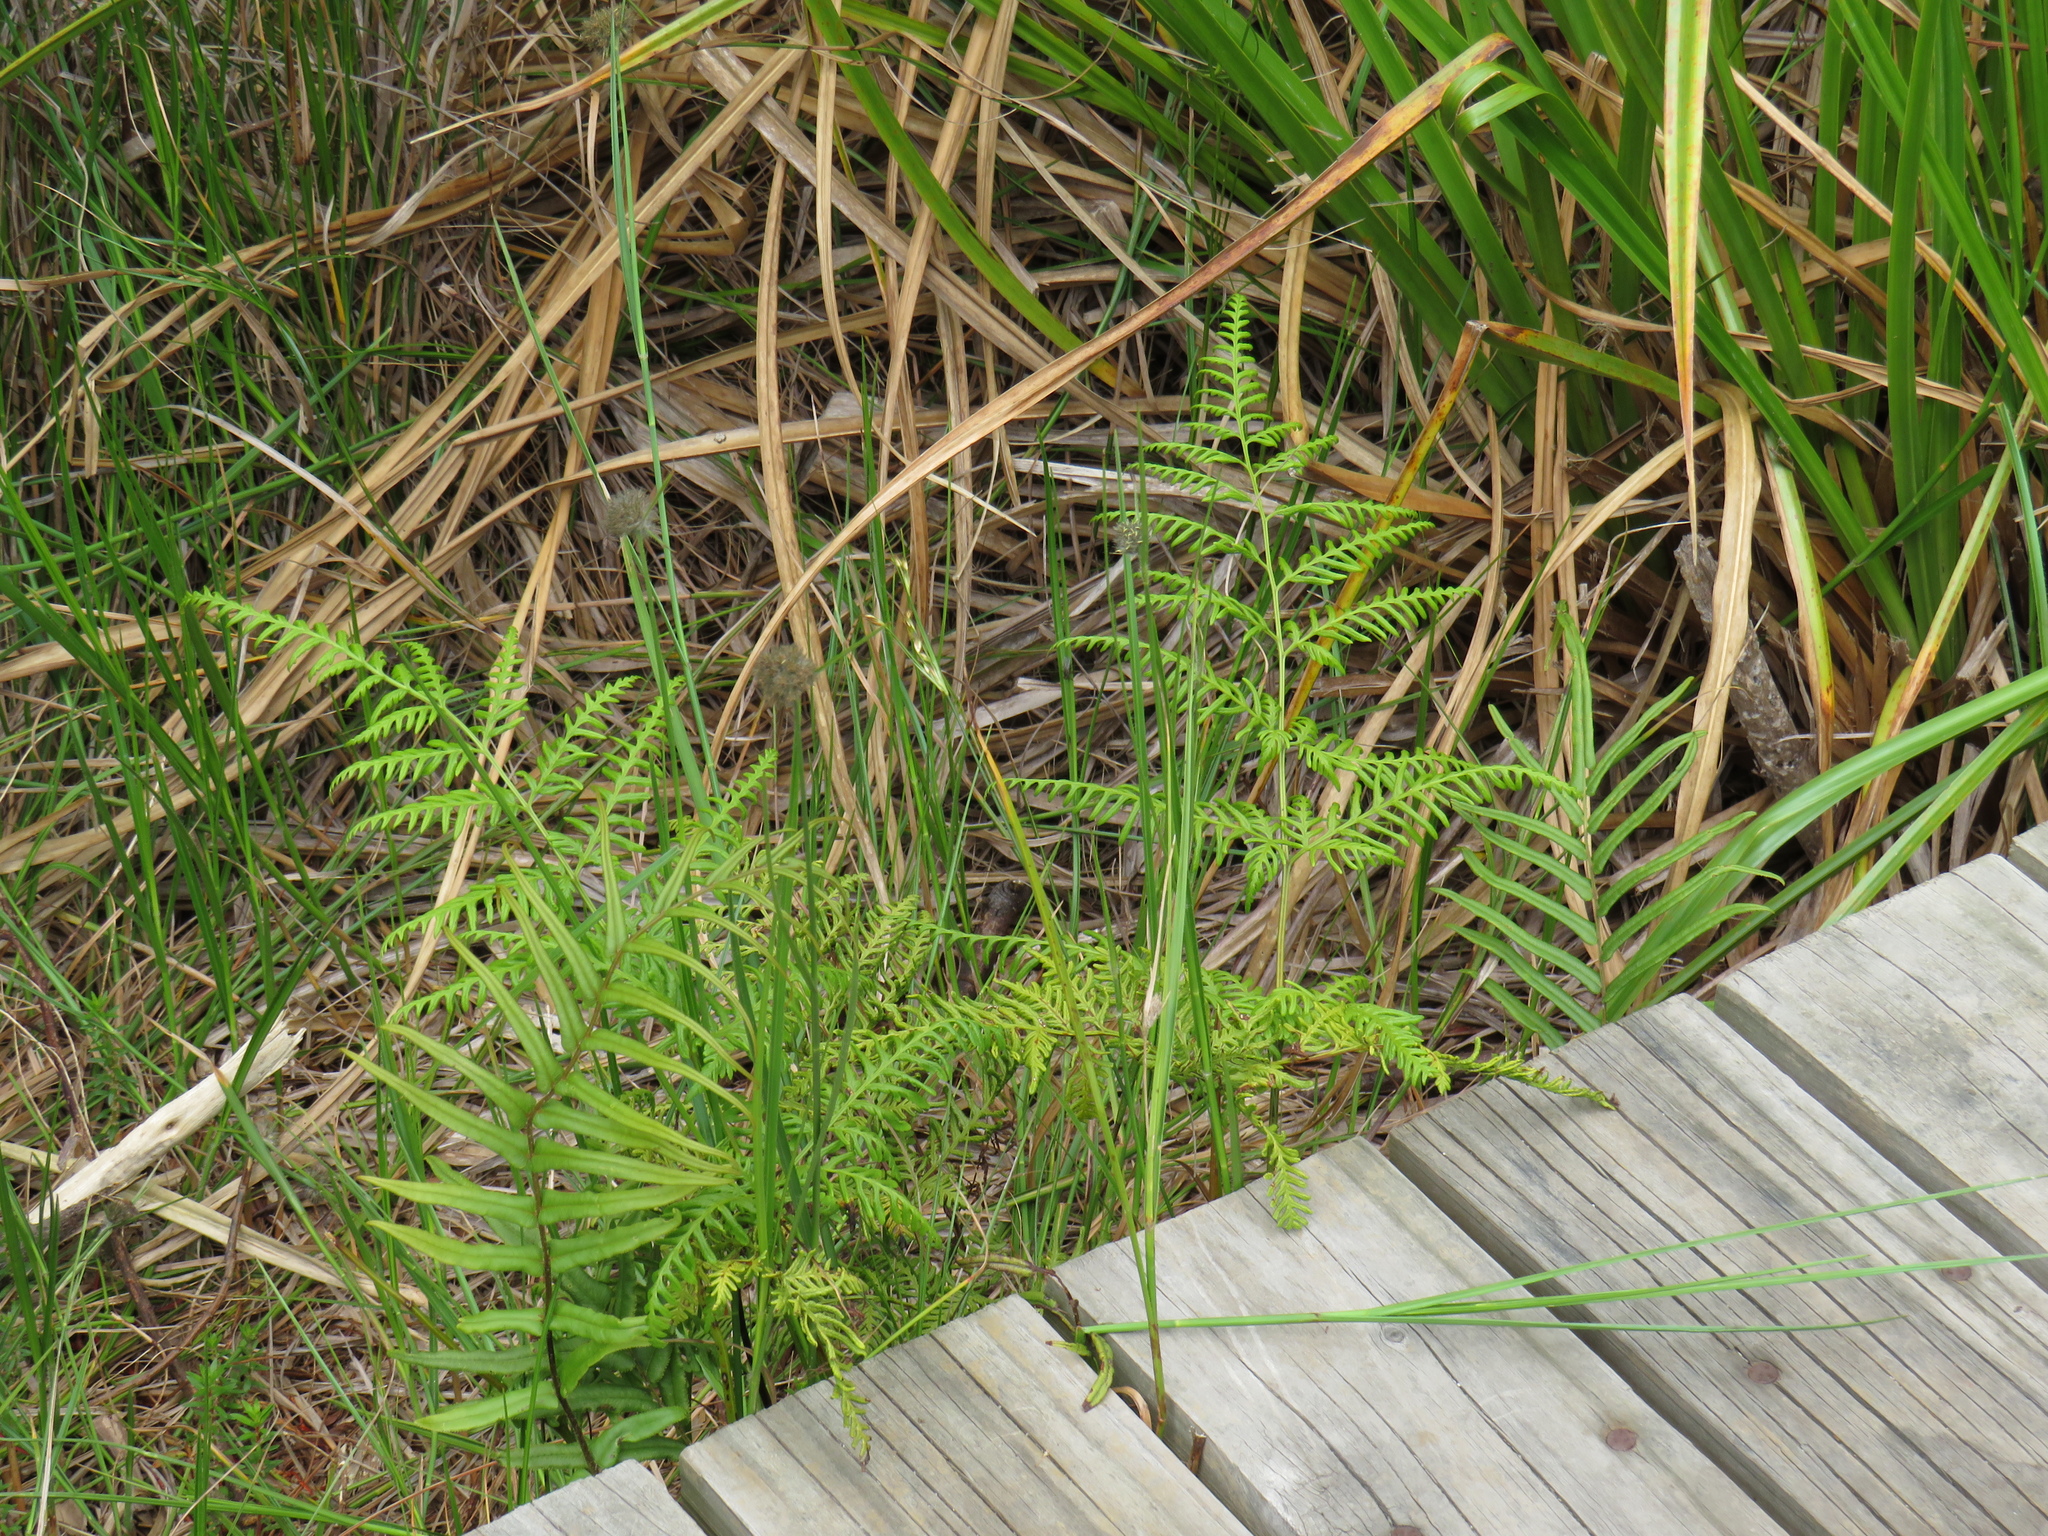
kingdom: Plantae
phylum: Tracheophyta
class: Polypodiopsida
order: Polypodiales
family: Dennstaedtiaceae
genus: Pteridium
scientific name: Pteridium aquilinum
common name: Bracken
